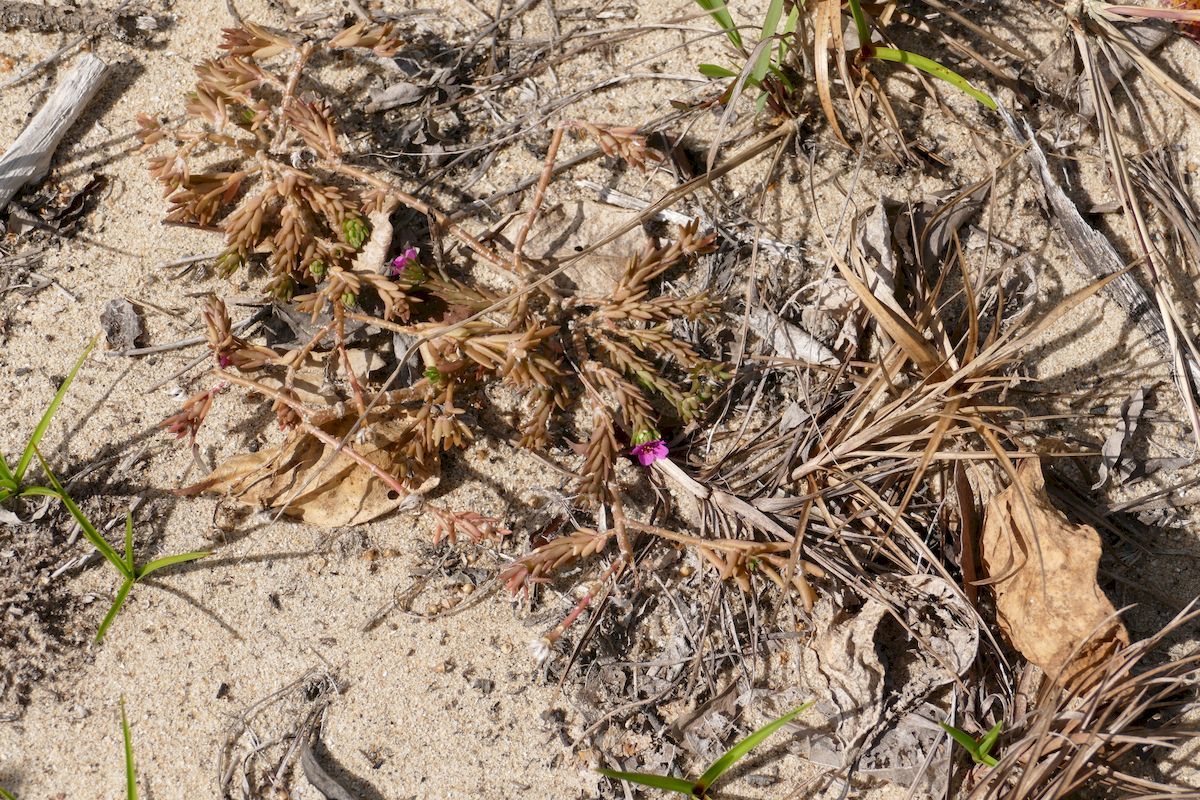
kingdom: Plantae
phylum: Tracheophyta
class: Magnoliopsida
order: Caryophyllales
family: Portulacaceae
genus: Portulaca
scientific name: Portulaca pilosa
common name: Kiss me quick
